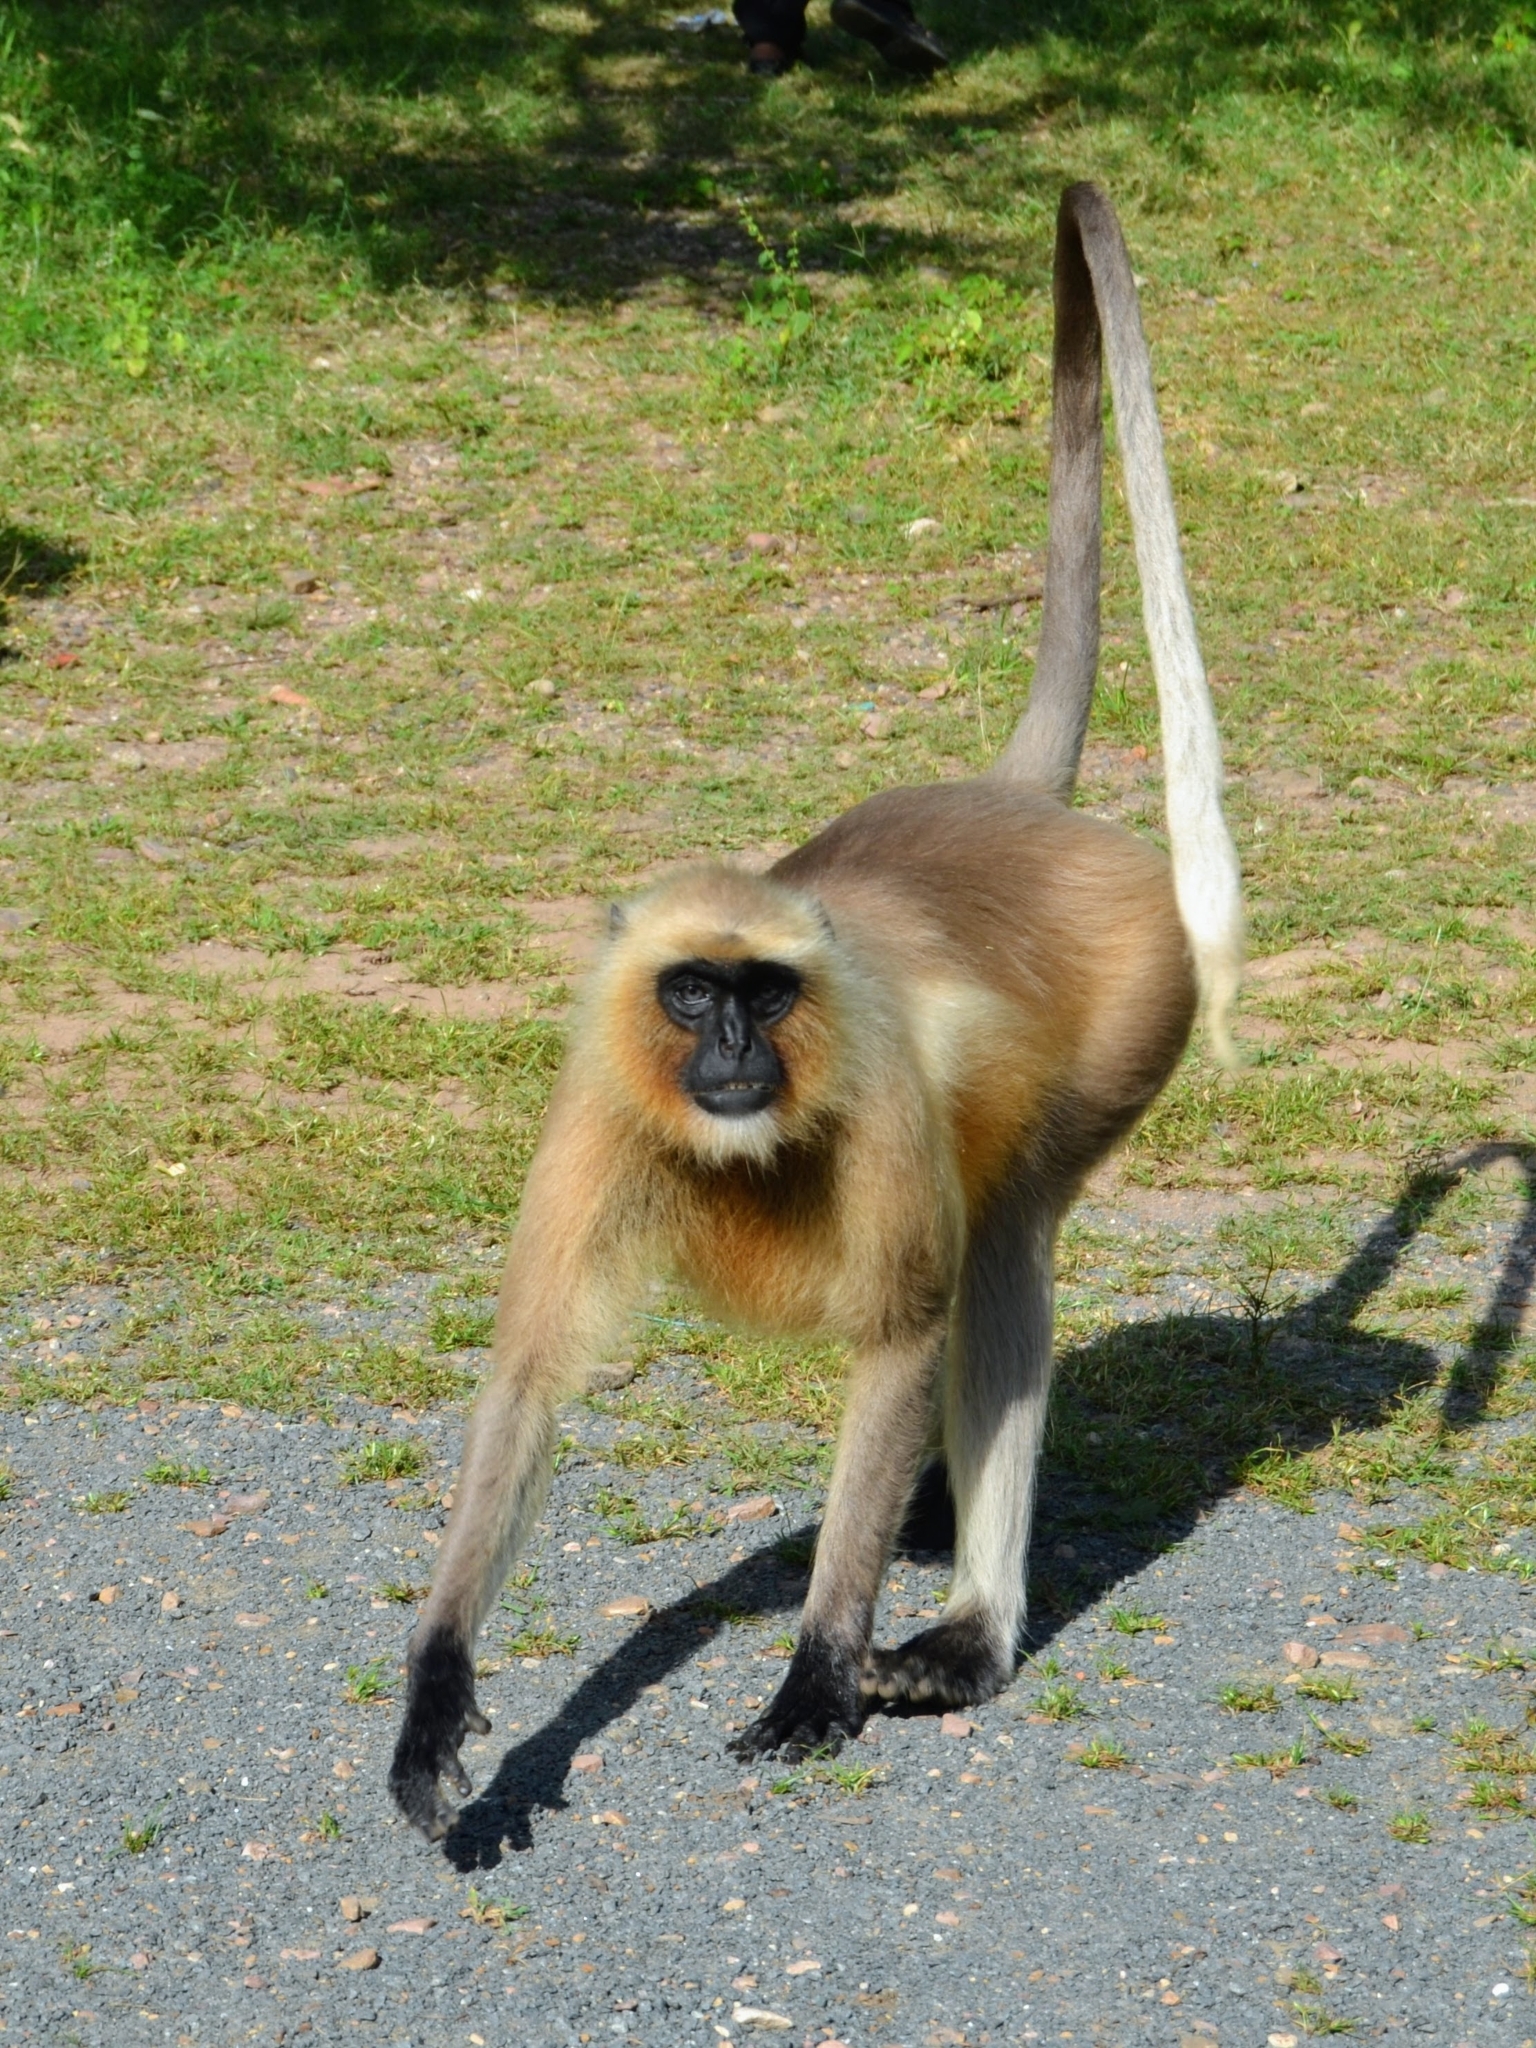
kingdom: Animalia
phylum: Chordata
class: Mammalia
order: Primates
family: Cercopithecidae
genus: Semnopithecus
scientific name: Semnopithecus entellus
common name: Northern plains gray langur
